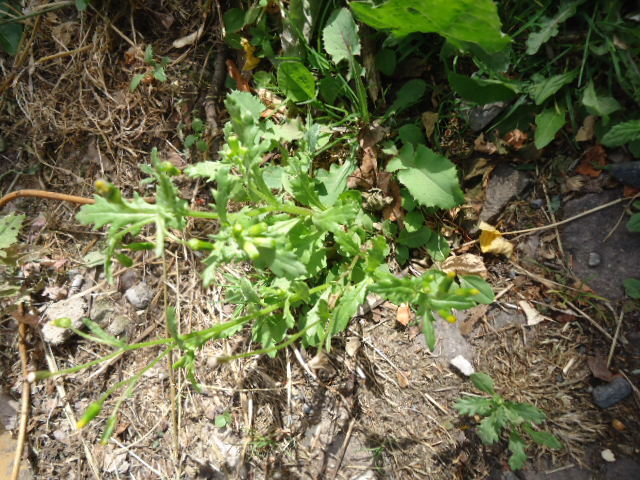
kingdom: Plantae
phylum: Tracheophyta
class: Magnoliopsida
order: Asterales
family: Asteraceae
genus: Senecio
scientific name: Senecio vulgaris
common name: Old-man-in-the-spring
